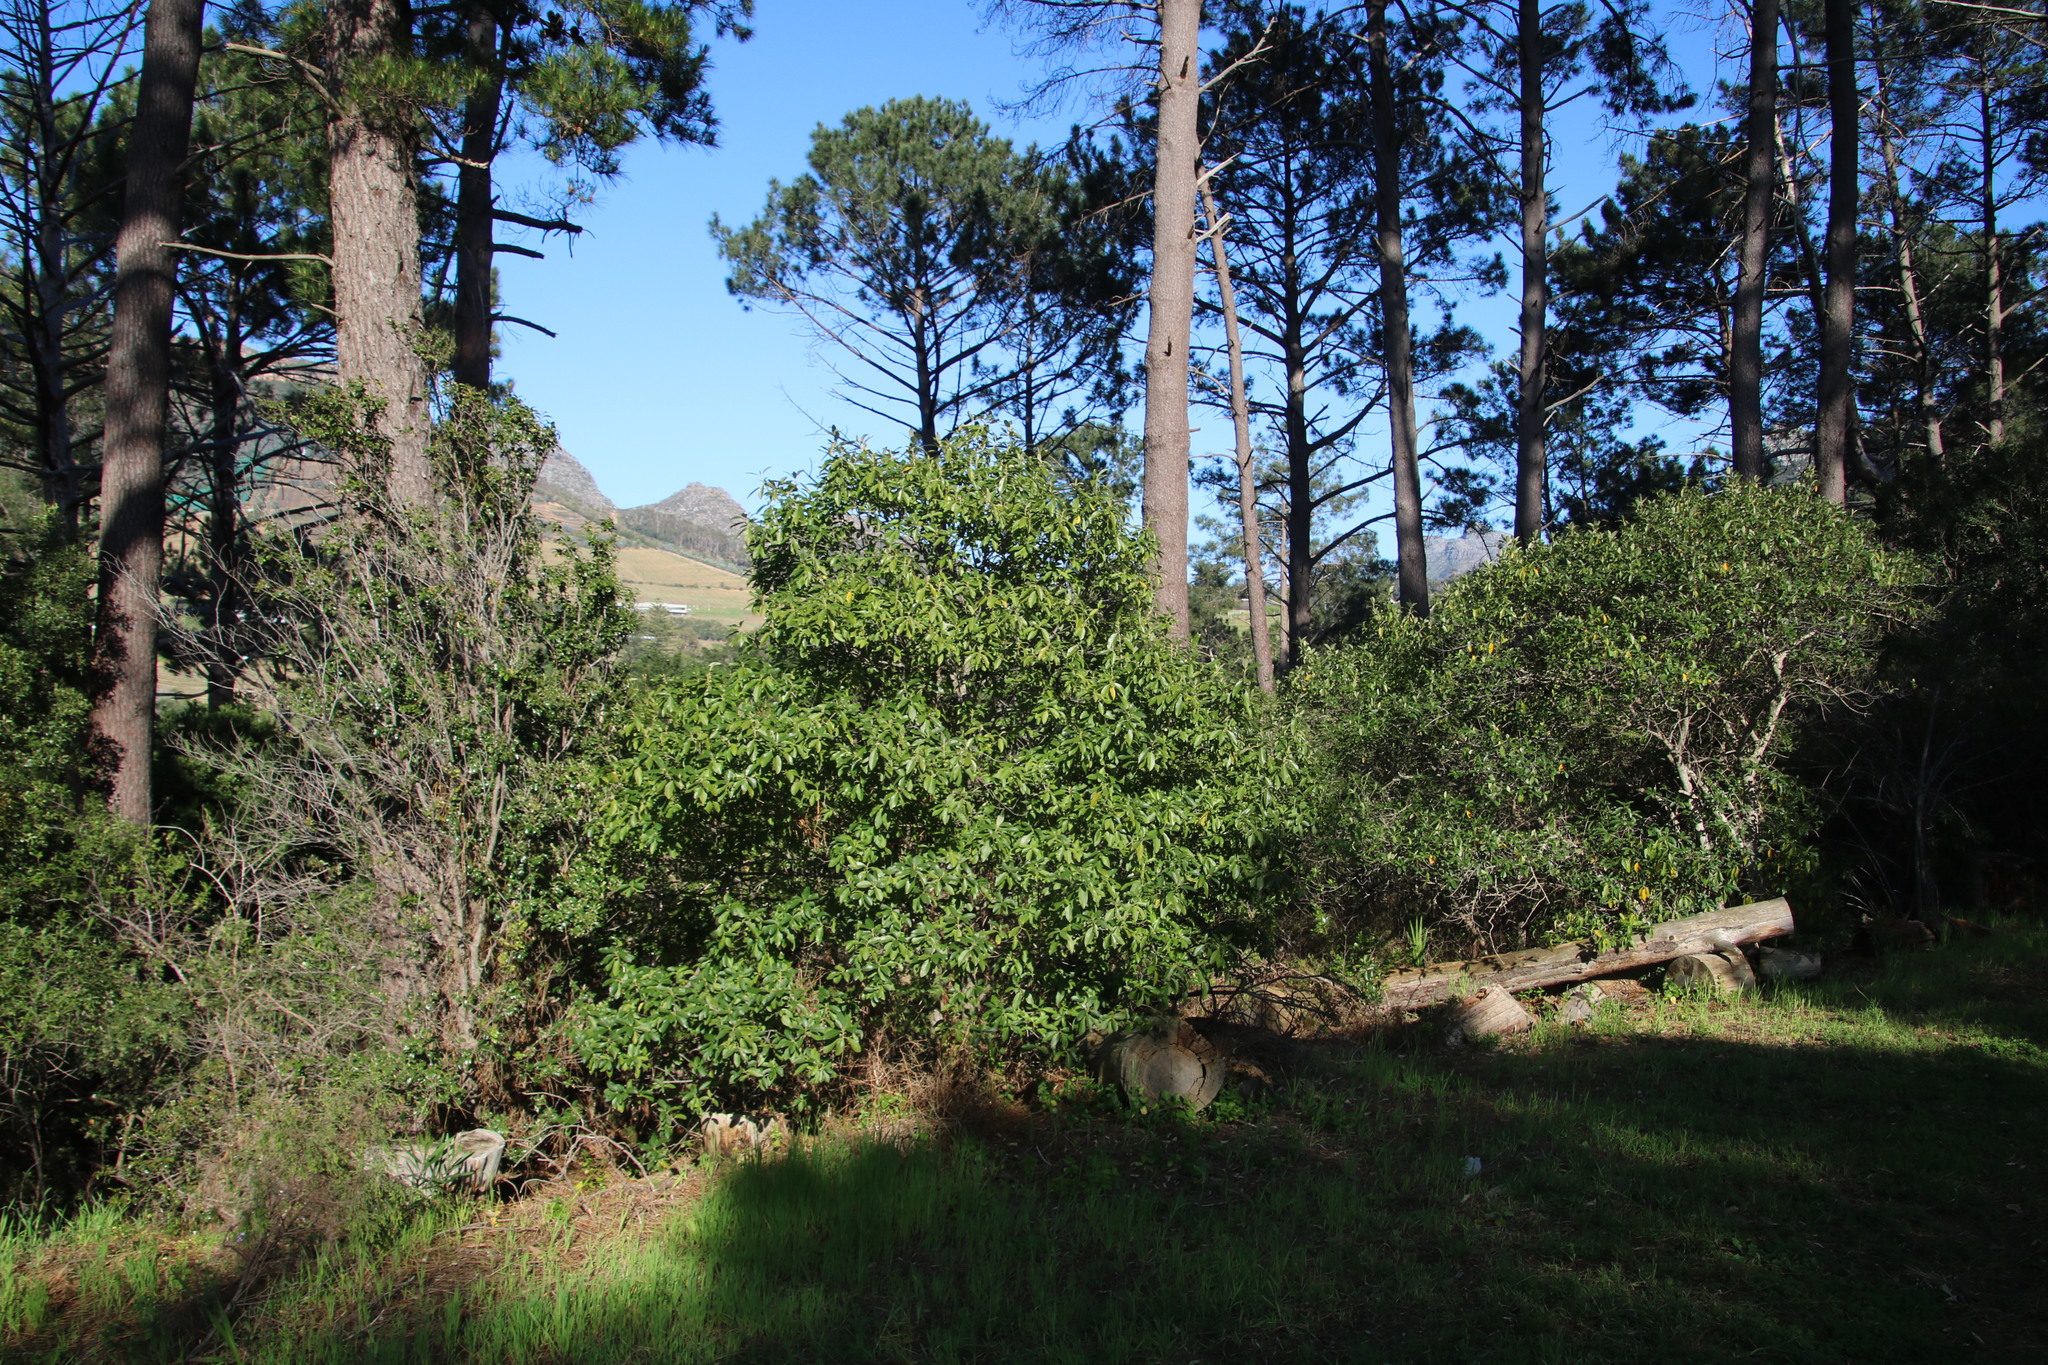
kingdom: Plantae
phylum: Tracheophyta
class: Magnoliopsida
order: Malpighiales
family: Achariaceae
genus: Kiggelaria
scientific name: Kiggelaria africana
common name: Wild peach
